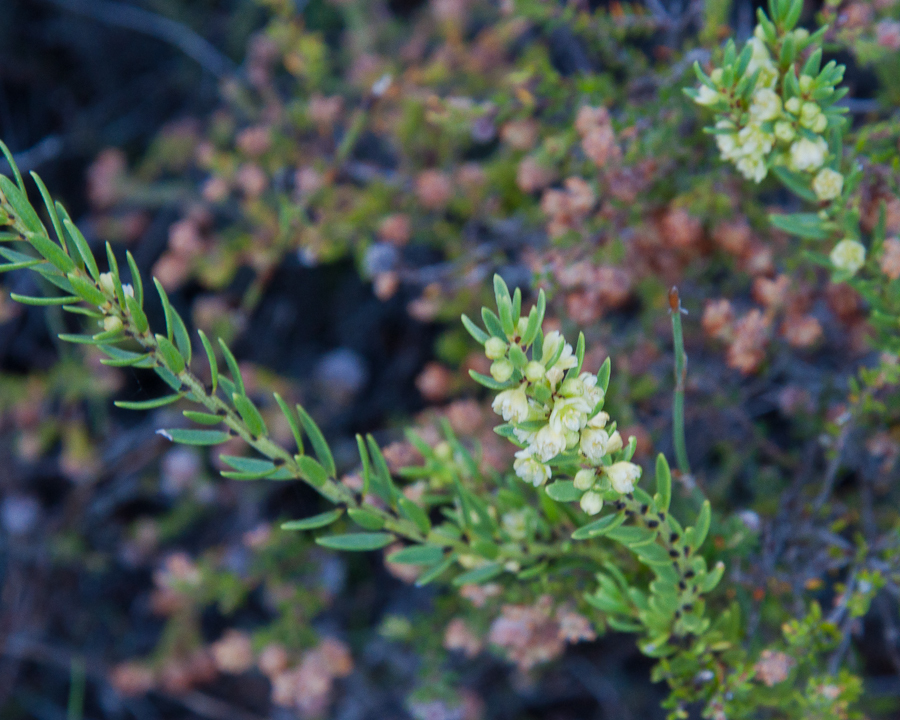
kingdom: Plantae
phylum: Tracheophyta
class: Magnoliopsida
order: Malpighiales
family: Peraceae
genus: Clutia
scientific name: Clutia ericoides
